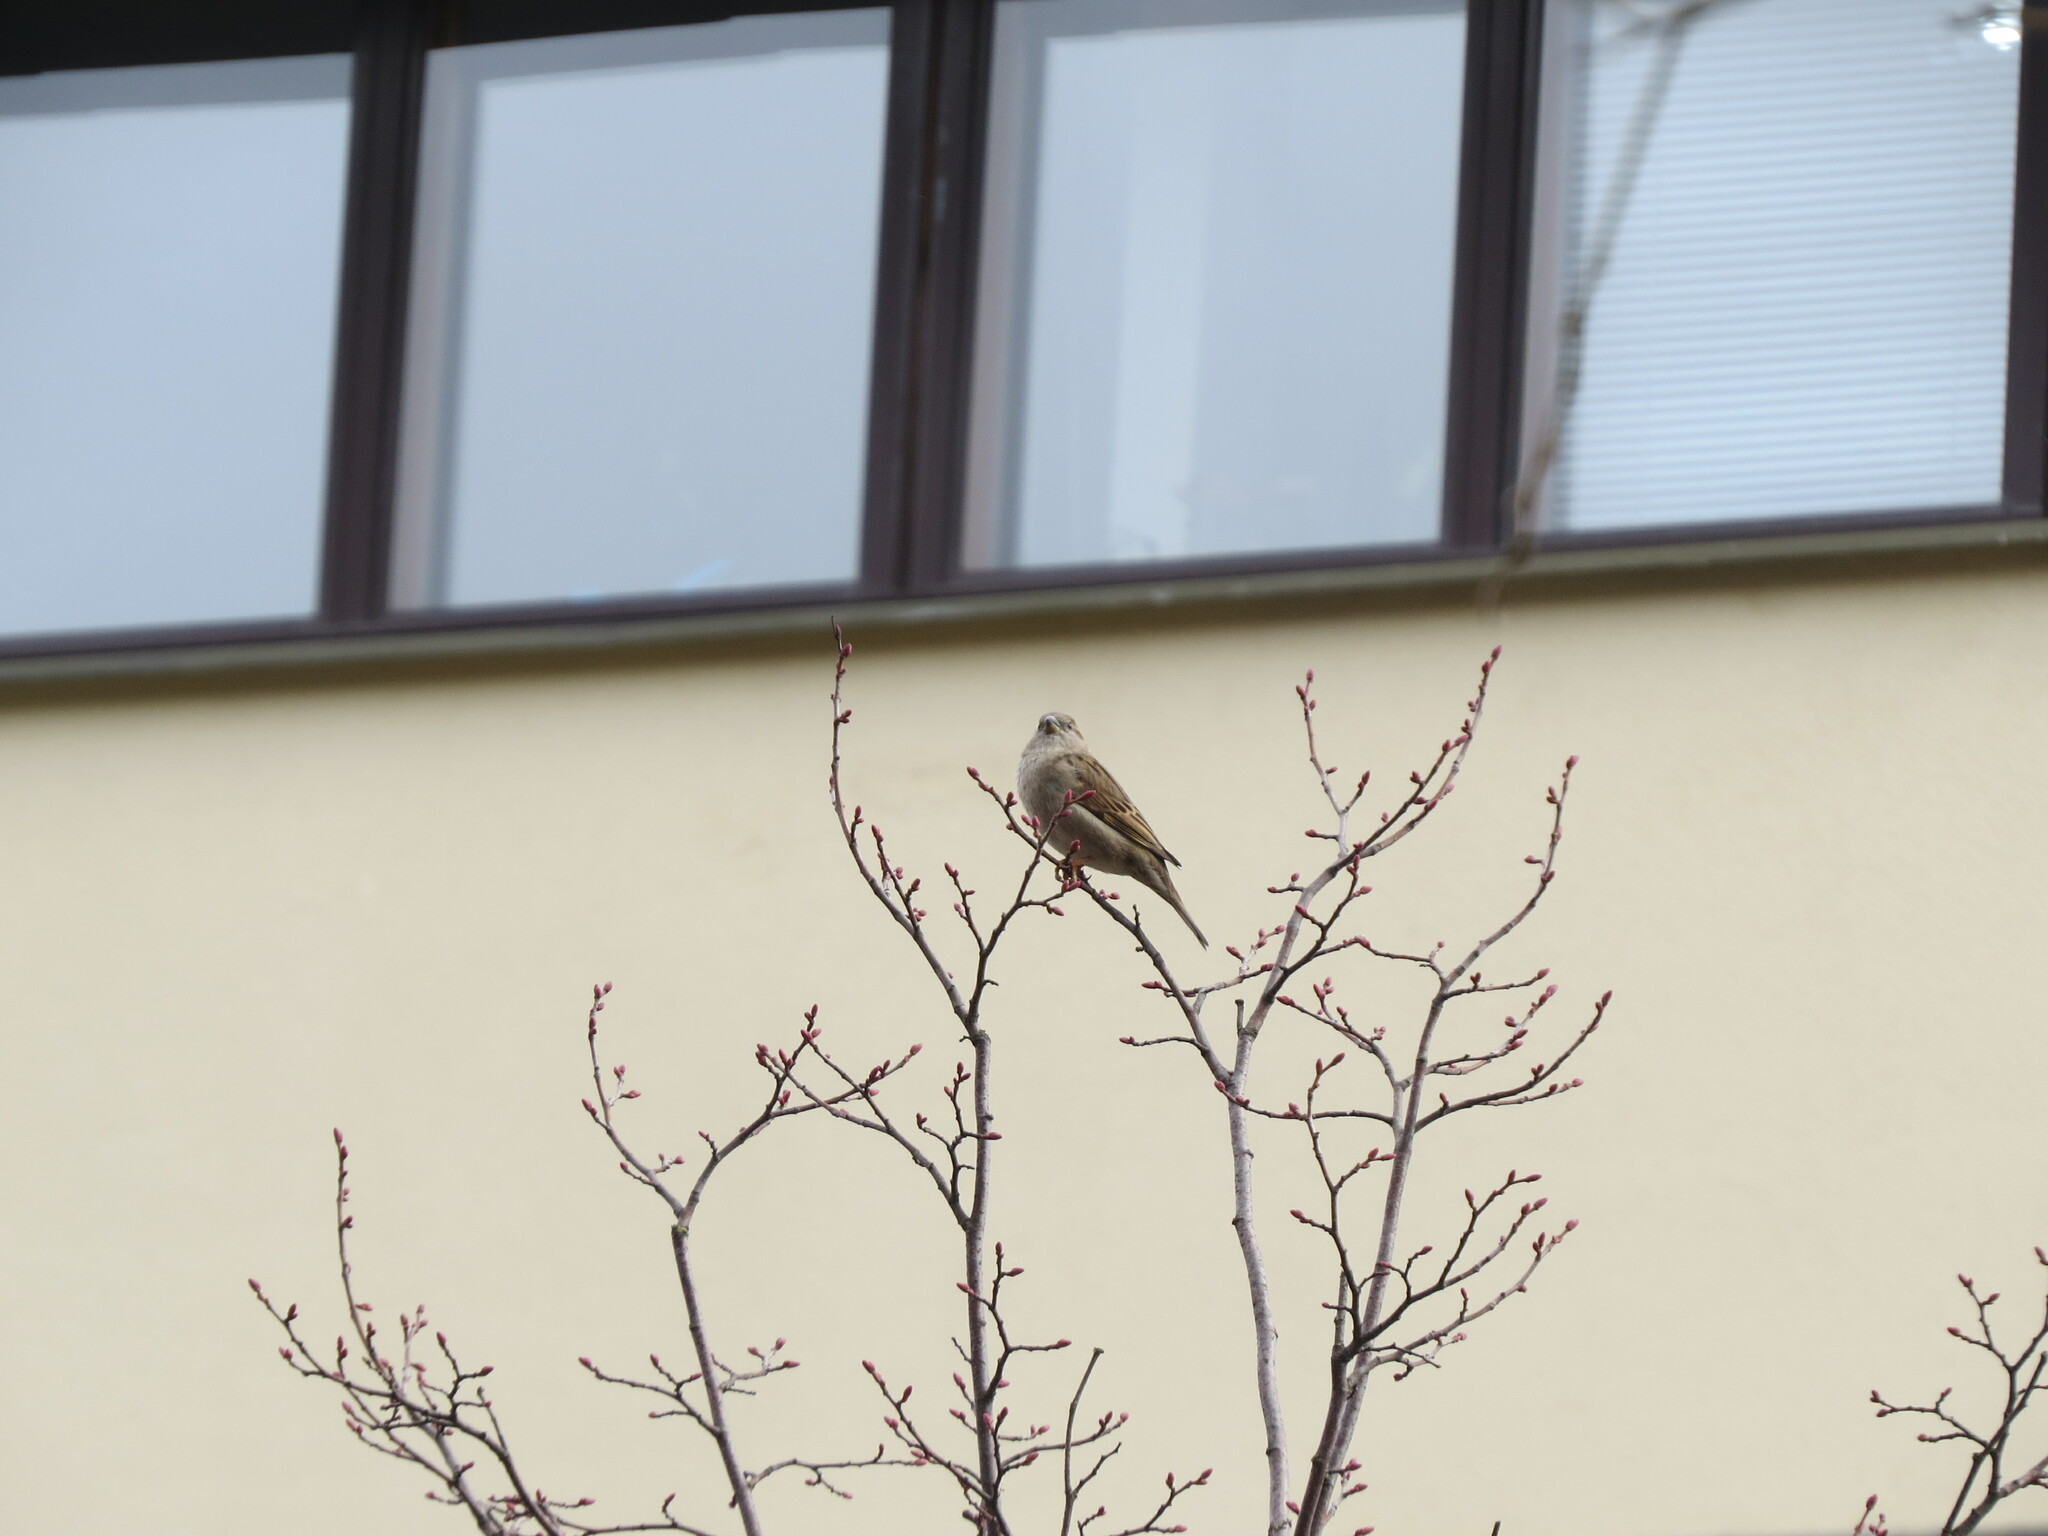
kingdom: Animalia
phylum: Chordata
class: Aves
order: Passeriformes
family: Passeridae
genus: Passer
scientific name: Passer domesticus
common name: House sparrow
